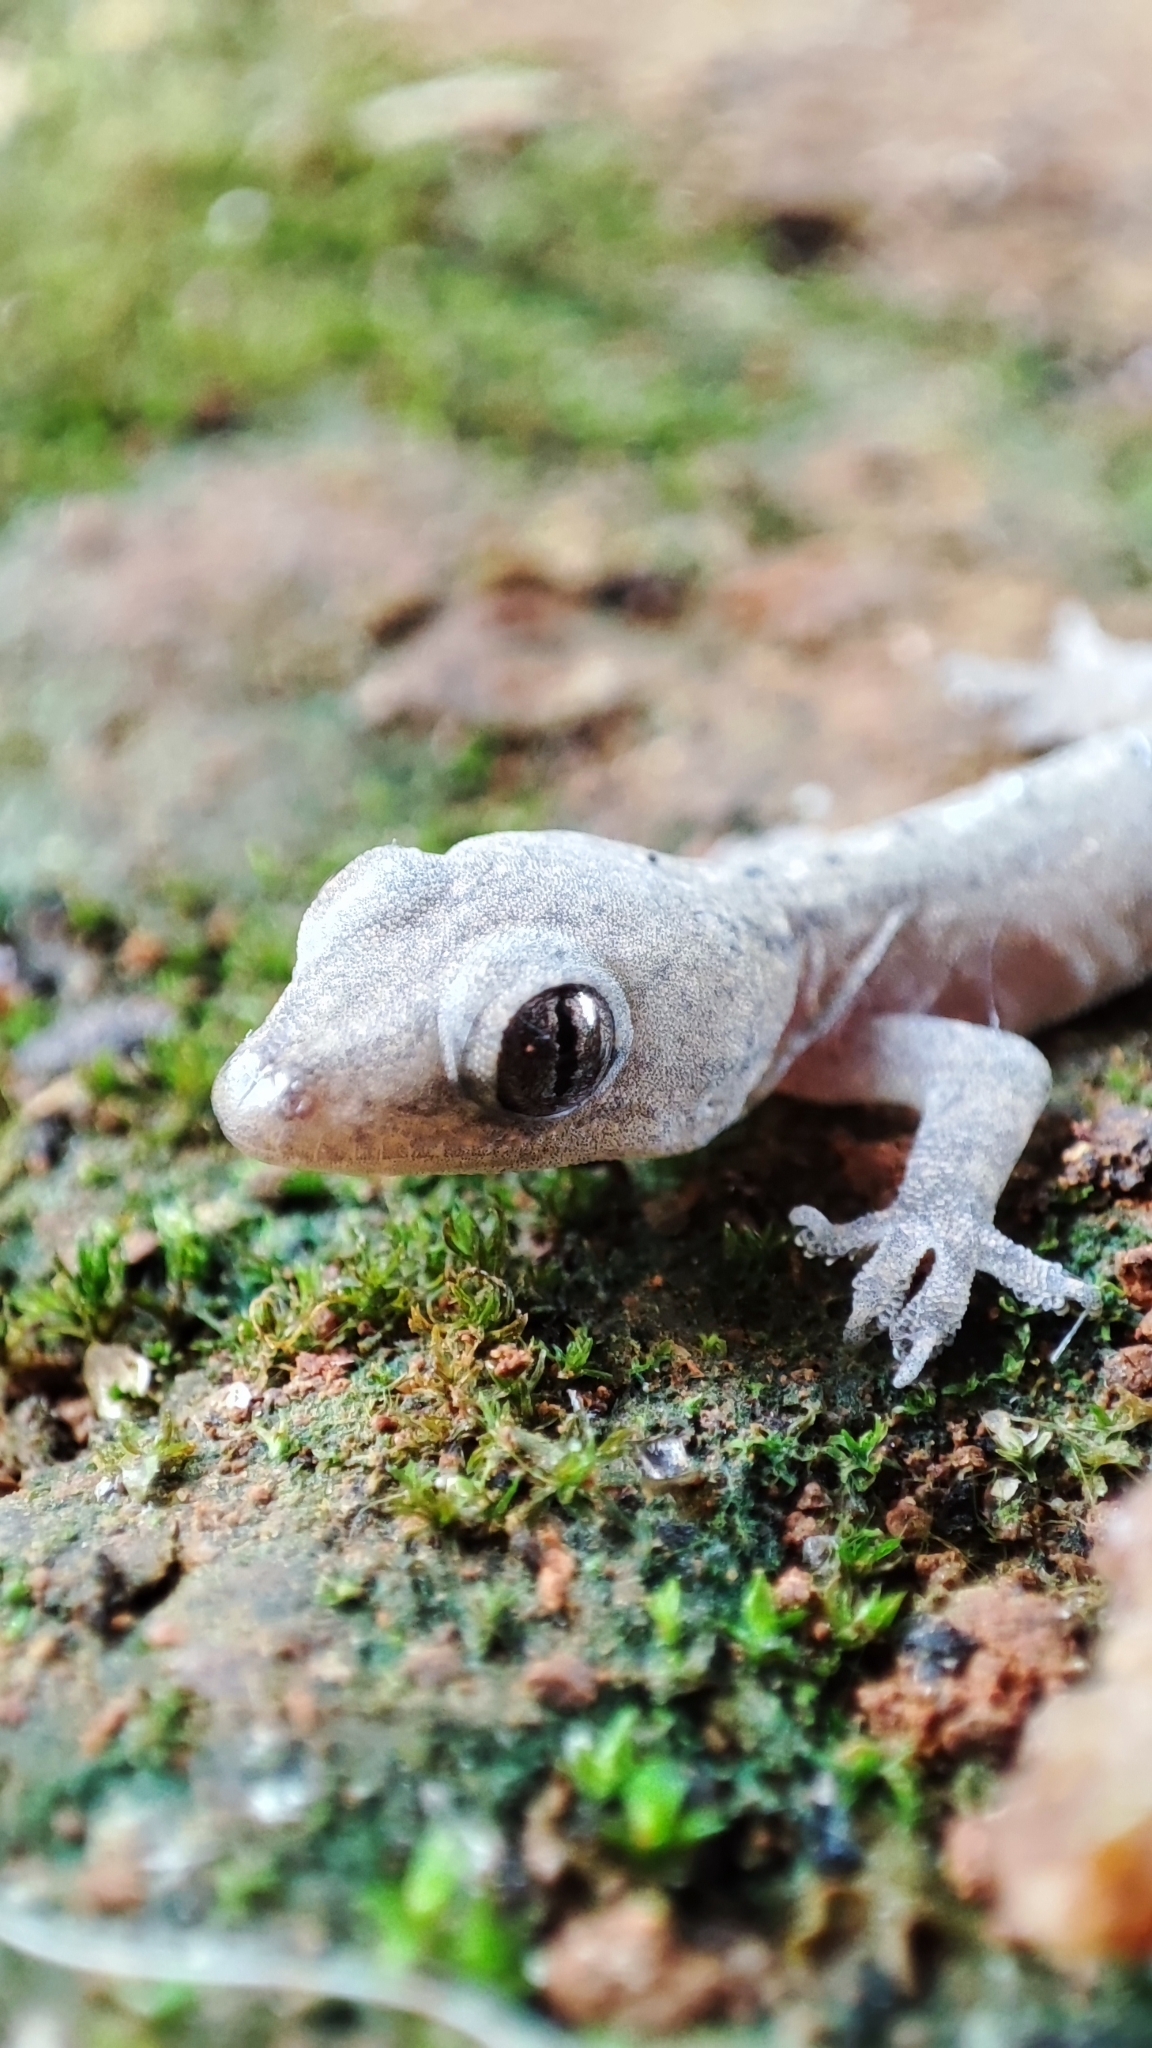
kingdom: Animalia
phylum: Chordata
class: Squamata
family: Gekkonidae
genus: Hemidactylus
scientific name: Hemidactylus frenatus
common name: Common house gecko
